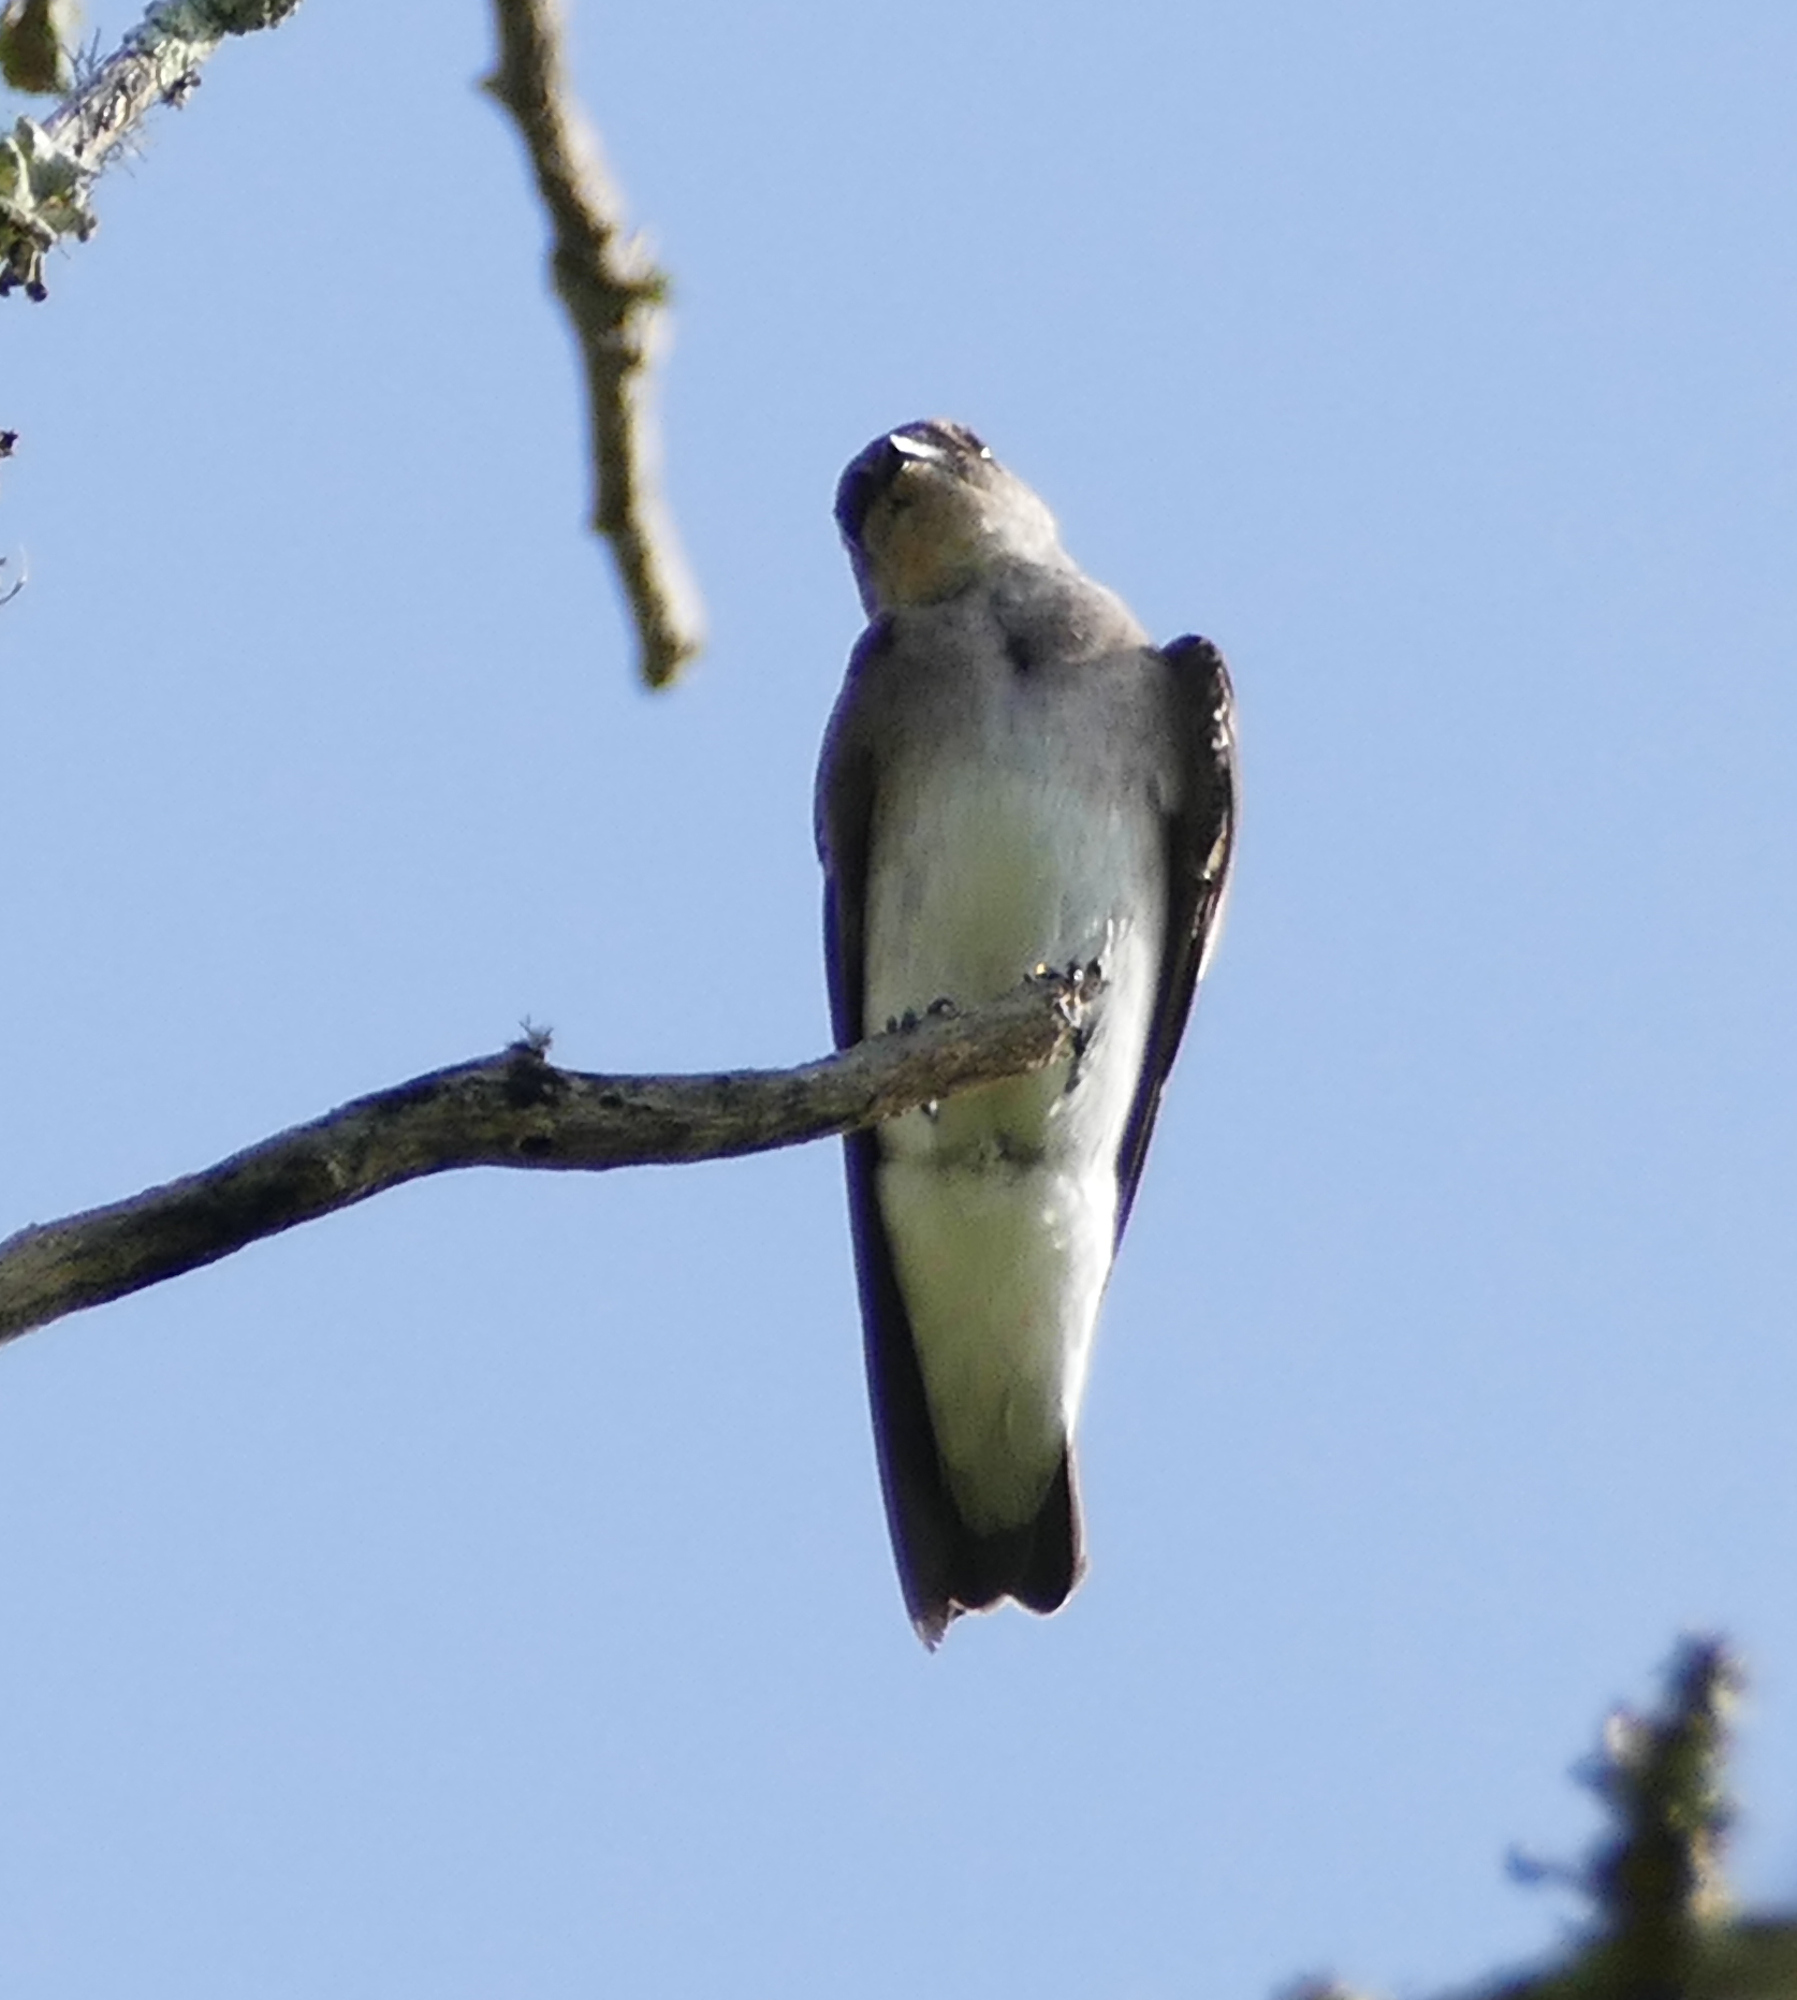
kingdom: Animalia
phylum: Chordata
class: Aves
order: Passeriformes
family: Hirundinidae
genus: Stelgidopteryx
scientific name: Stelgidopteryx serripennis
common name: Northern rough-winged swallow
